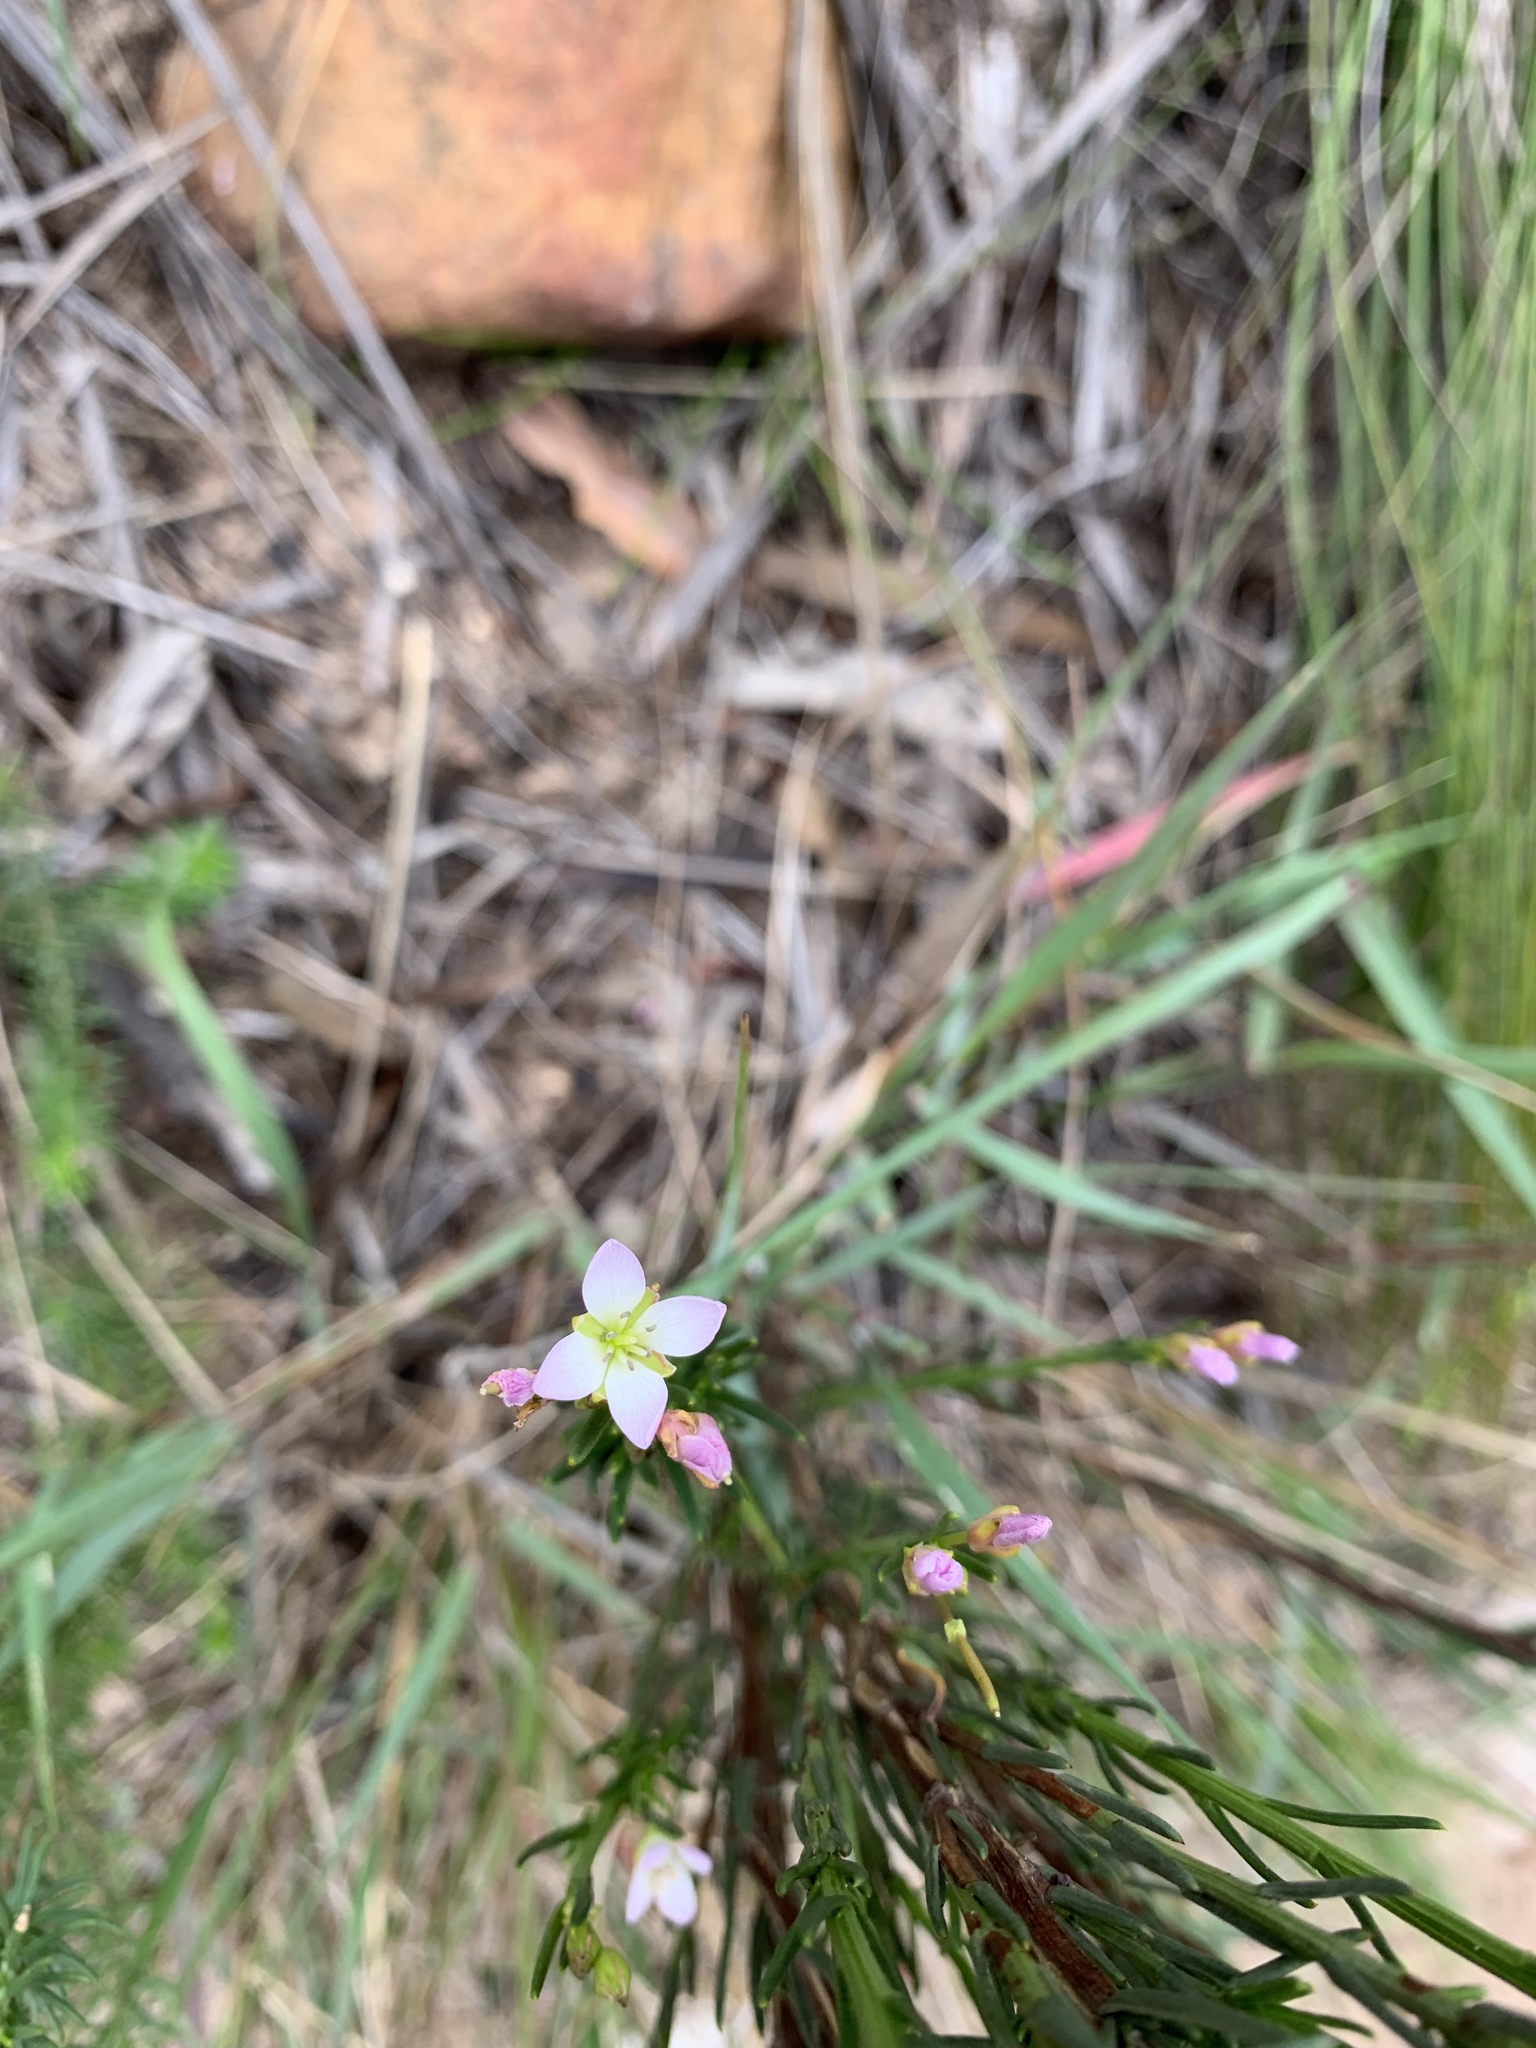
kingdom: Plantae
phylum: Tracheophyta
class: Magnoliopsida
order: Brassicales
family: Brassicaceae
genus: Heliophila
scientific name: Heliophila scoparia
